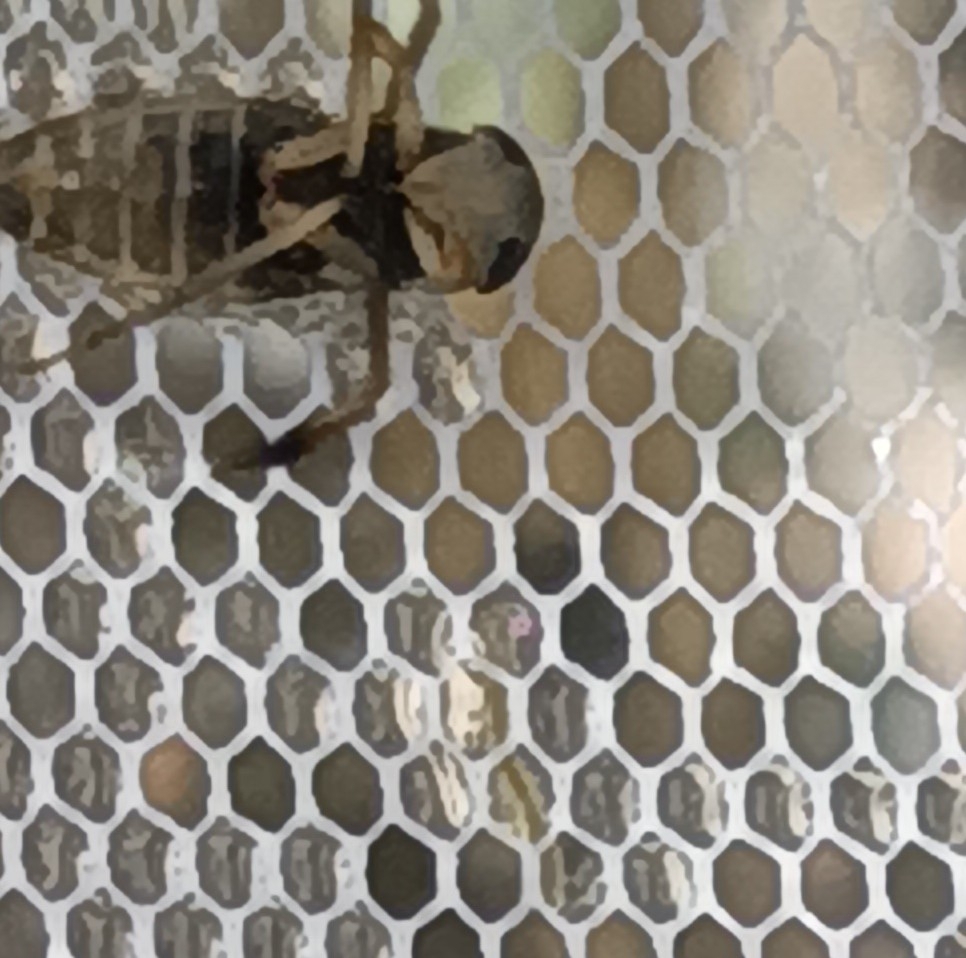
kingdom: Animalia
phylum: Arthropoda
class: Insecta
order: Hemiptera
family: Corixidae
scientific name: Corixidae
